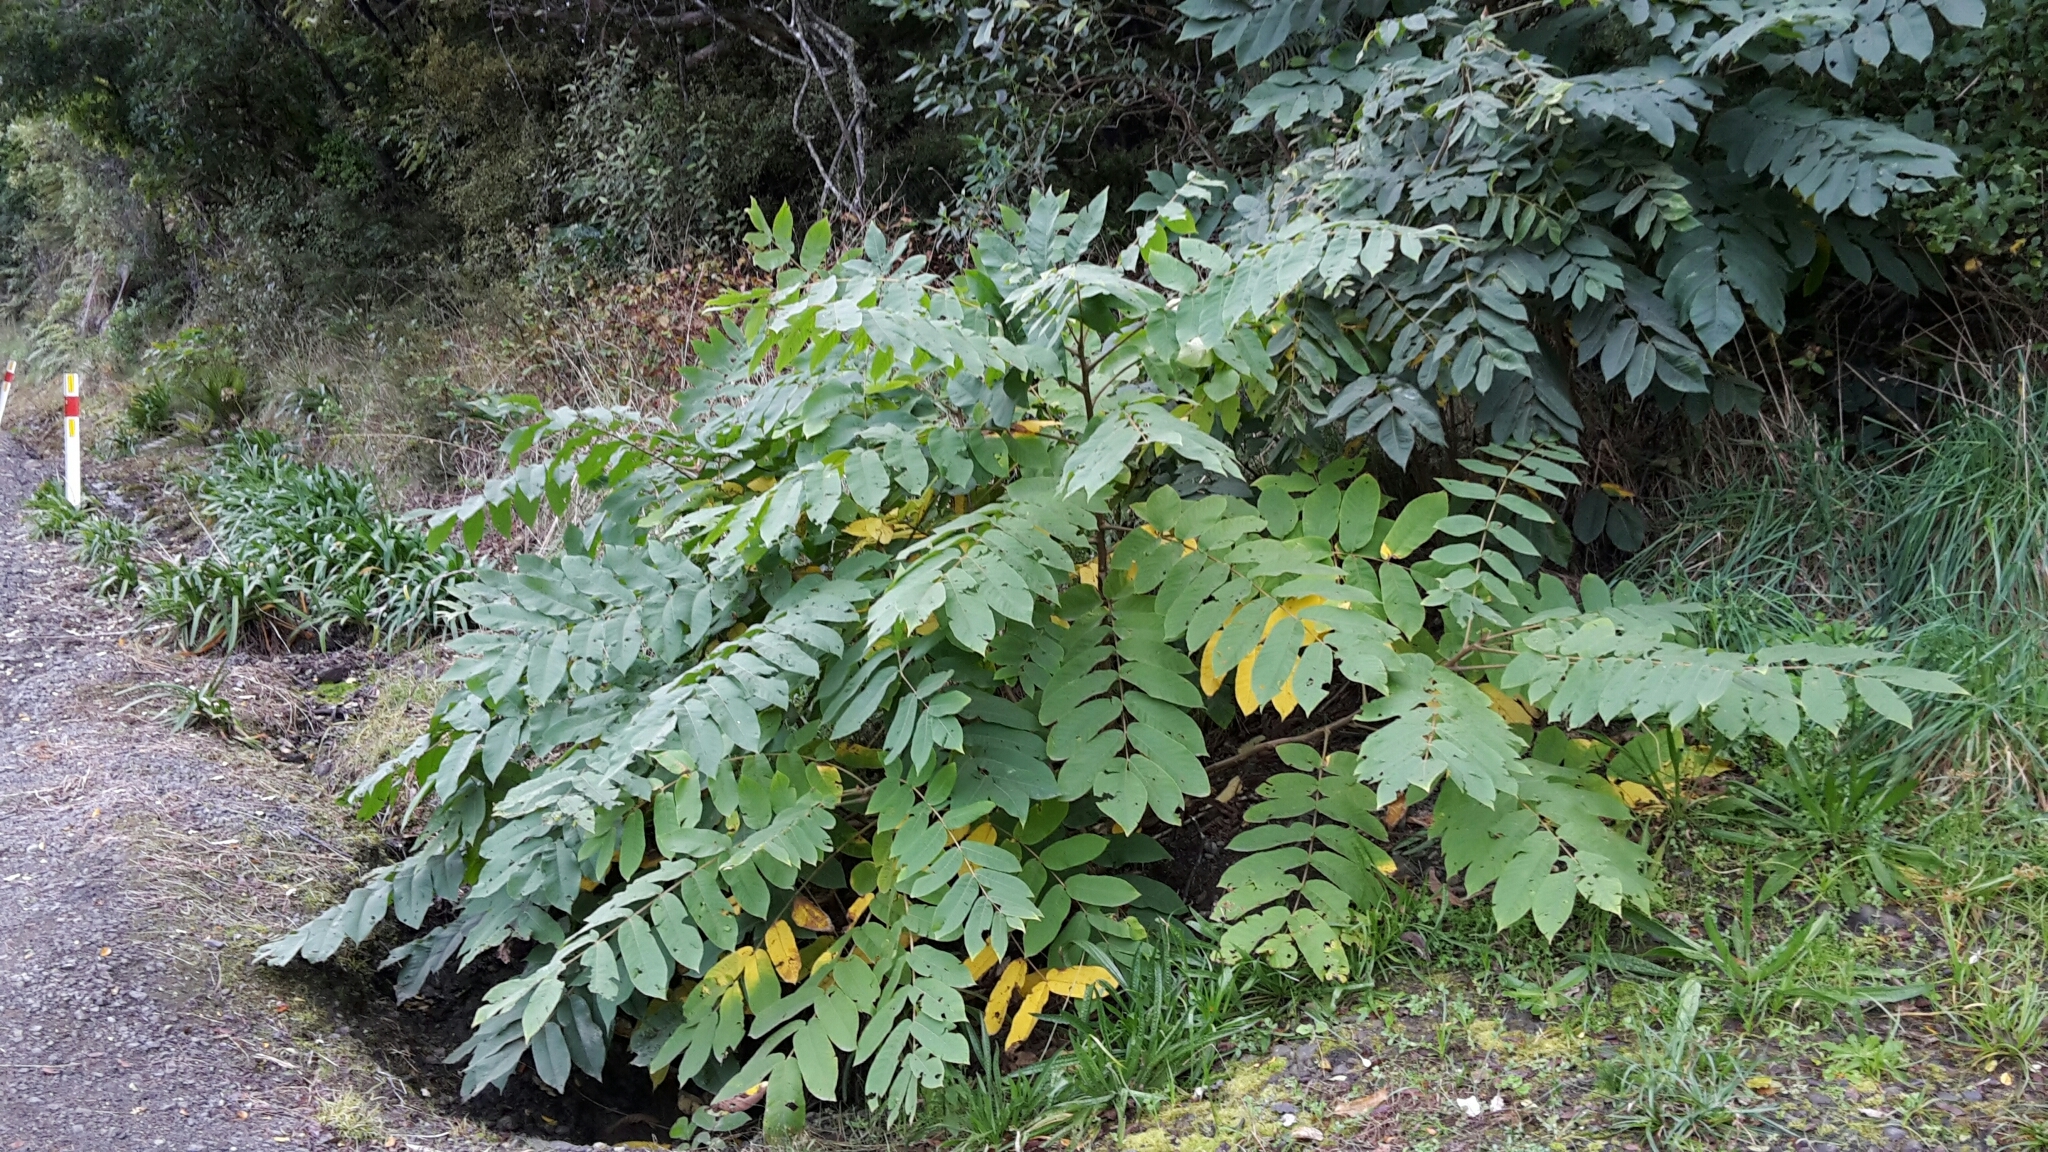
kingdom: Plantae
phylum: Tracheophyta
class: Magnoliopsida
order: Fagales
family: Juglandaceae
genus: Juglans
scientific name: Juglans ailantifolia
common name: Japanese walnut
